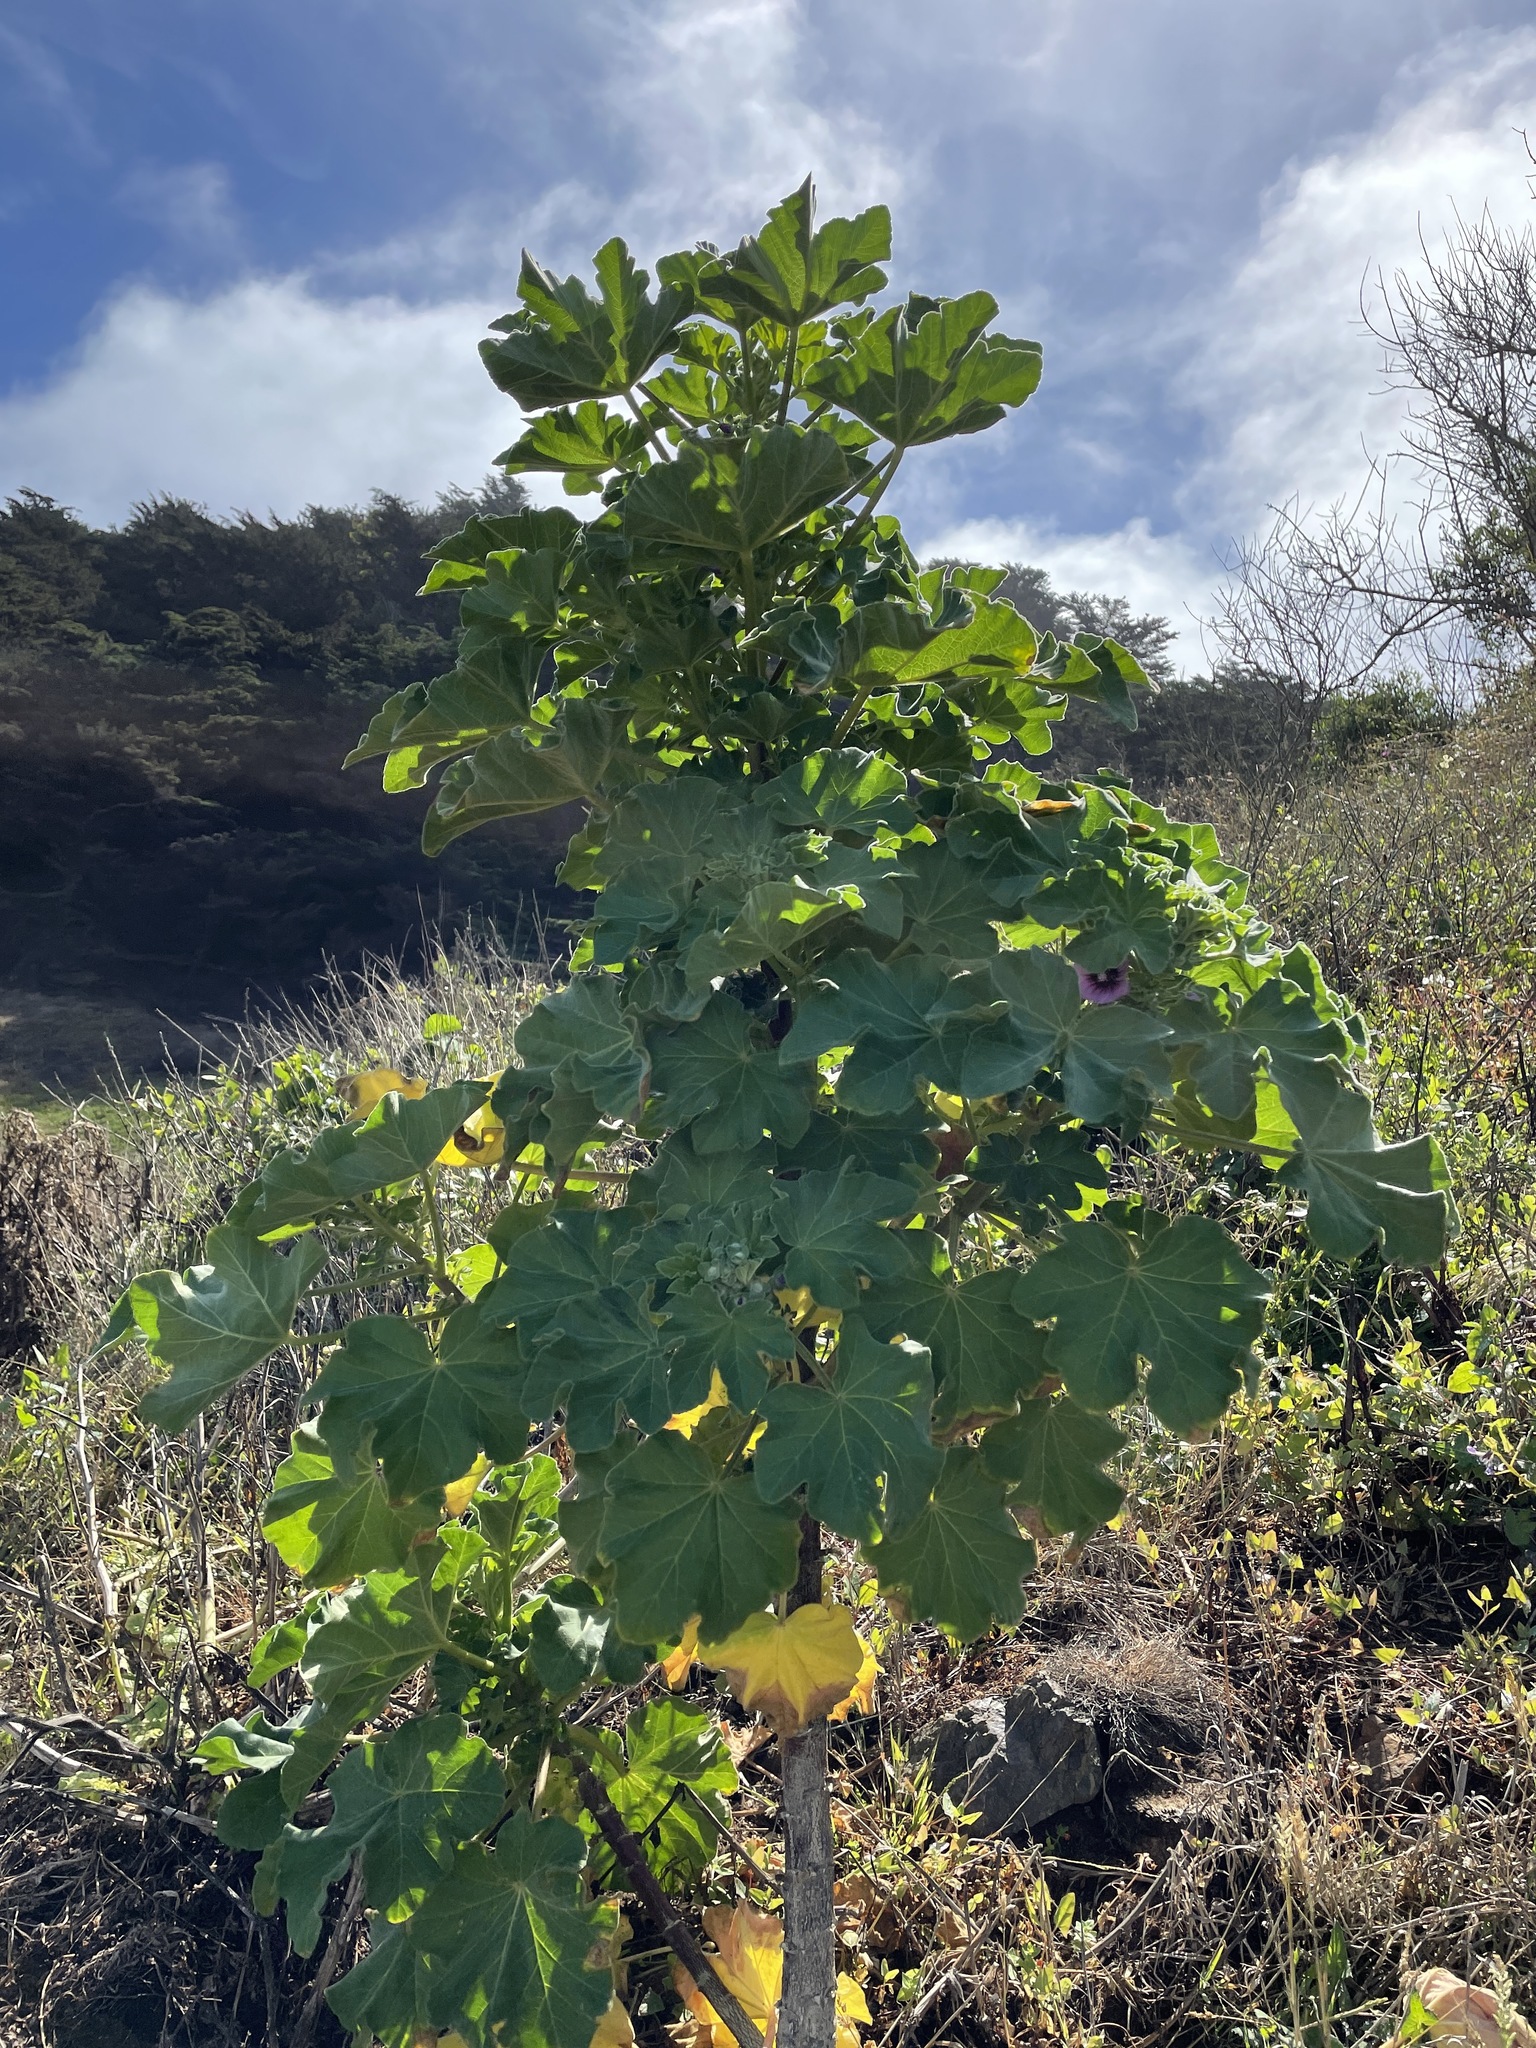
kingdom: Plantae
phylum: Tracheophyta
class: Magnoliopsida
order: Malvales
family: Malvaceae
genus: Malva
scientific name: Malva arborea
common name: Tree mallow
